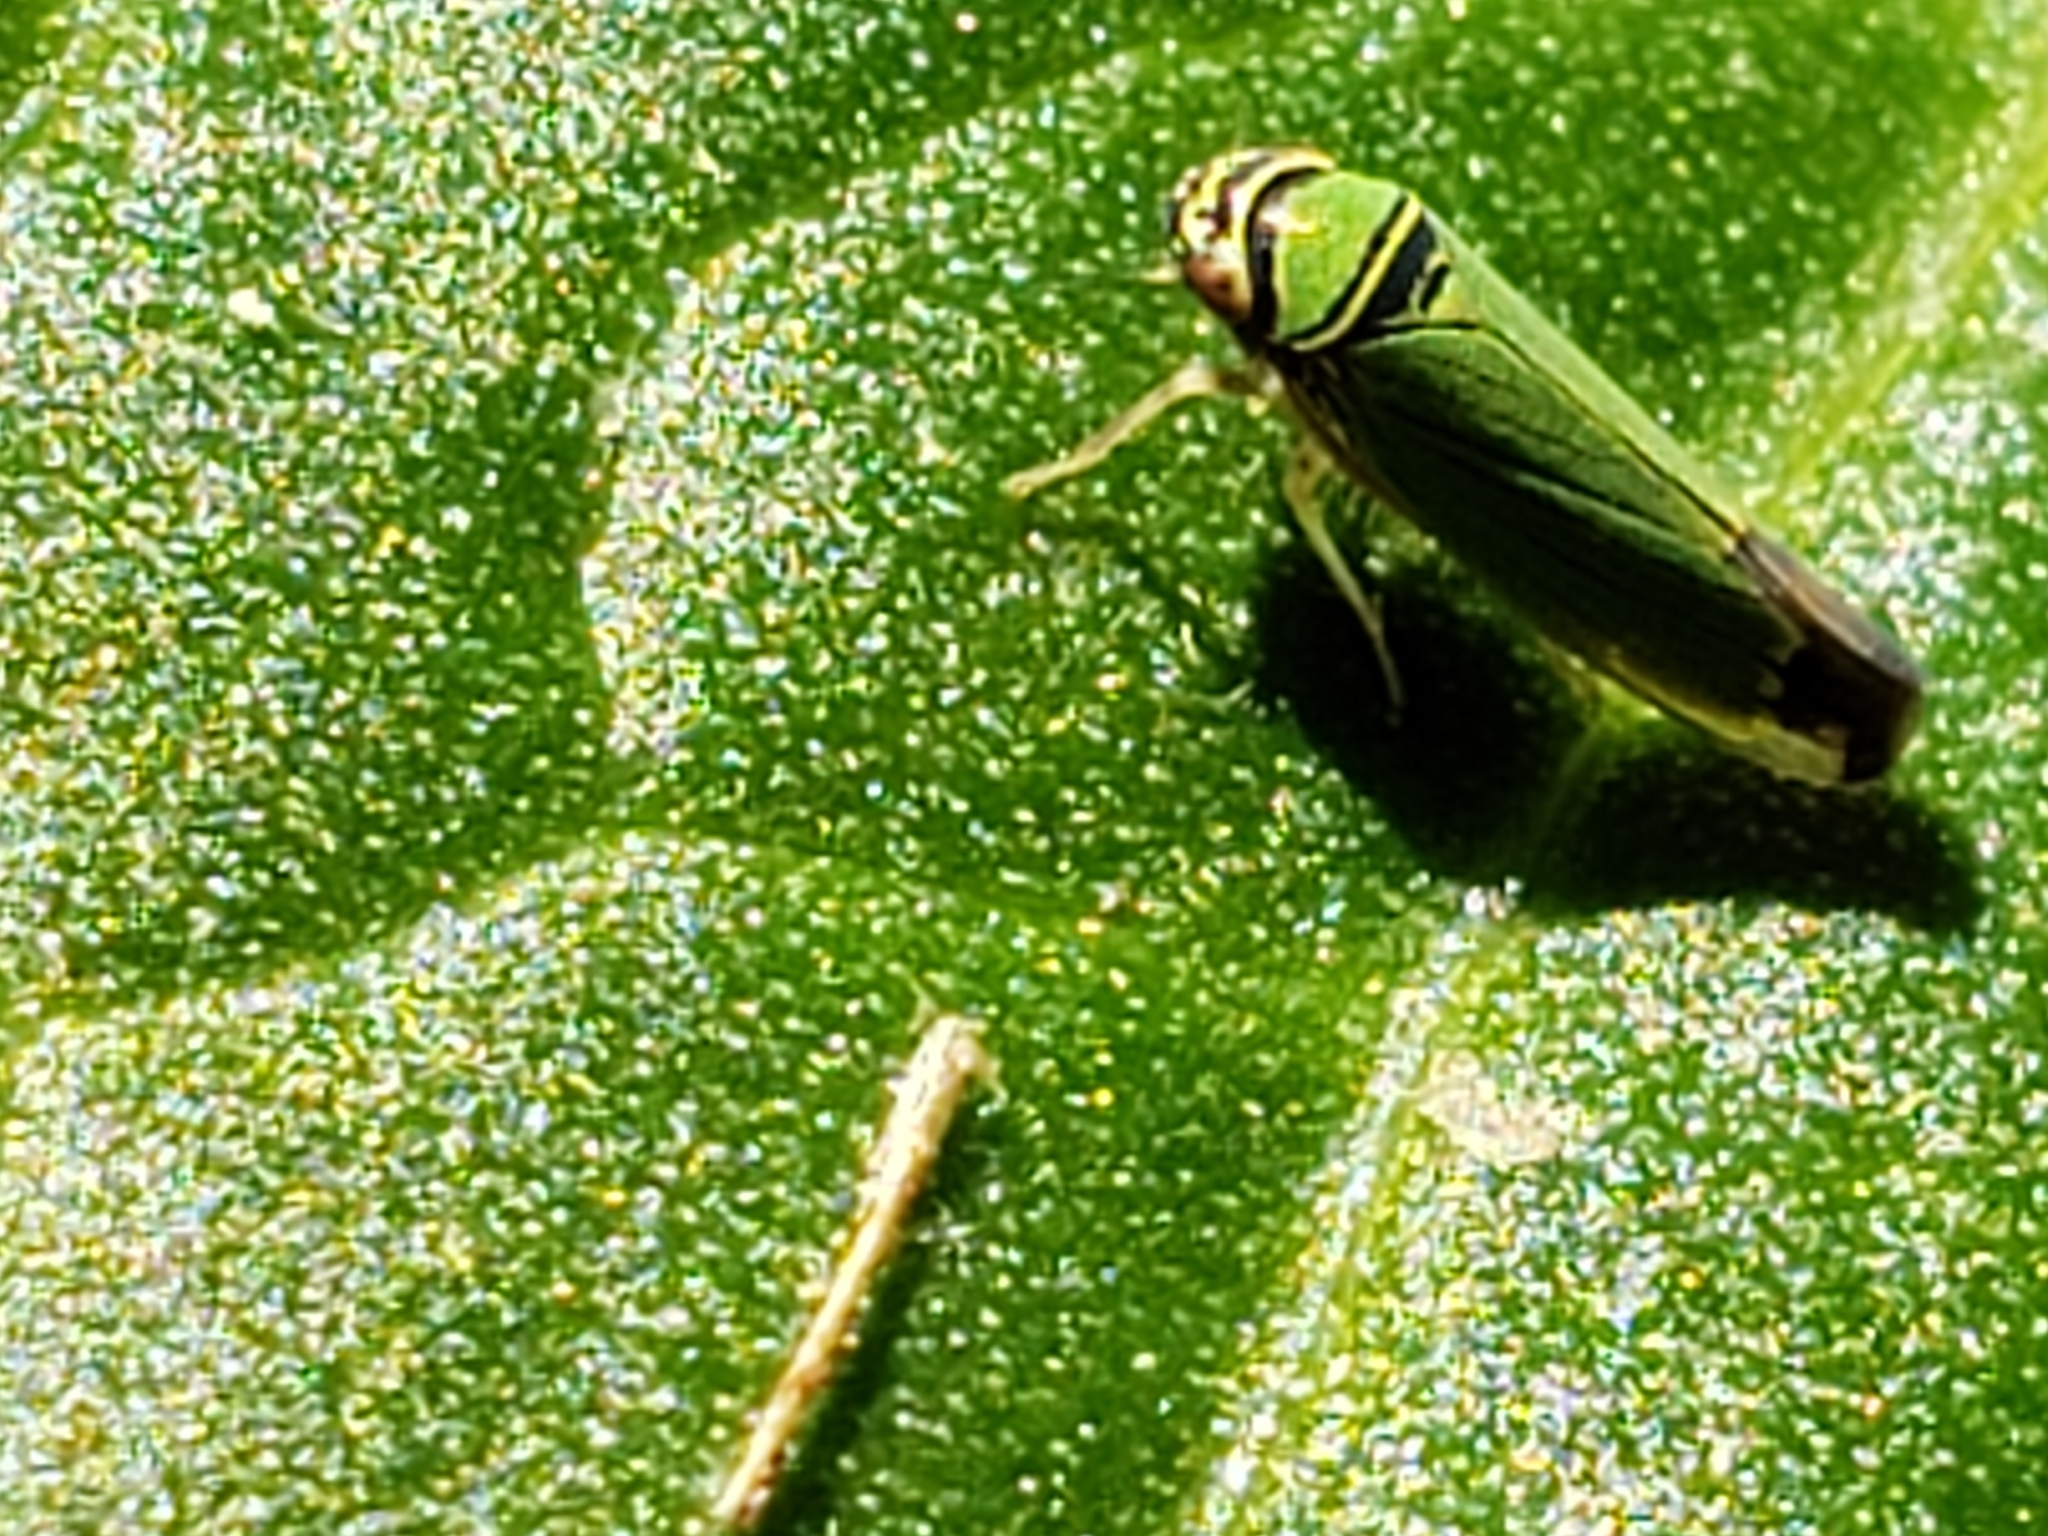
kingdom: Animalia
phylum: Arthropoda
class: Insecta
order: Hemiptera
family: Cicadellidae
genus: Tylozygus
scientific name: Tylozygus geometricus
